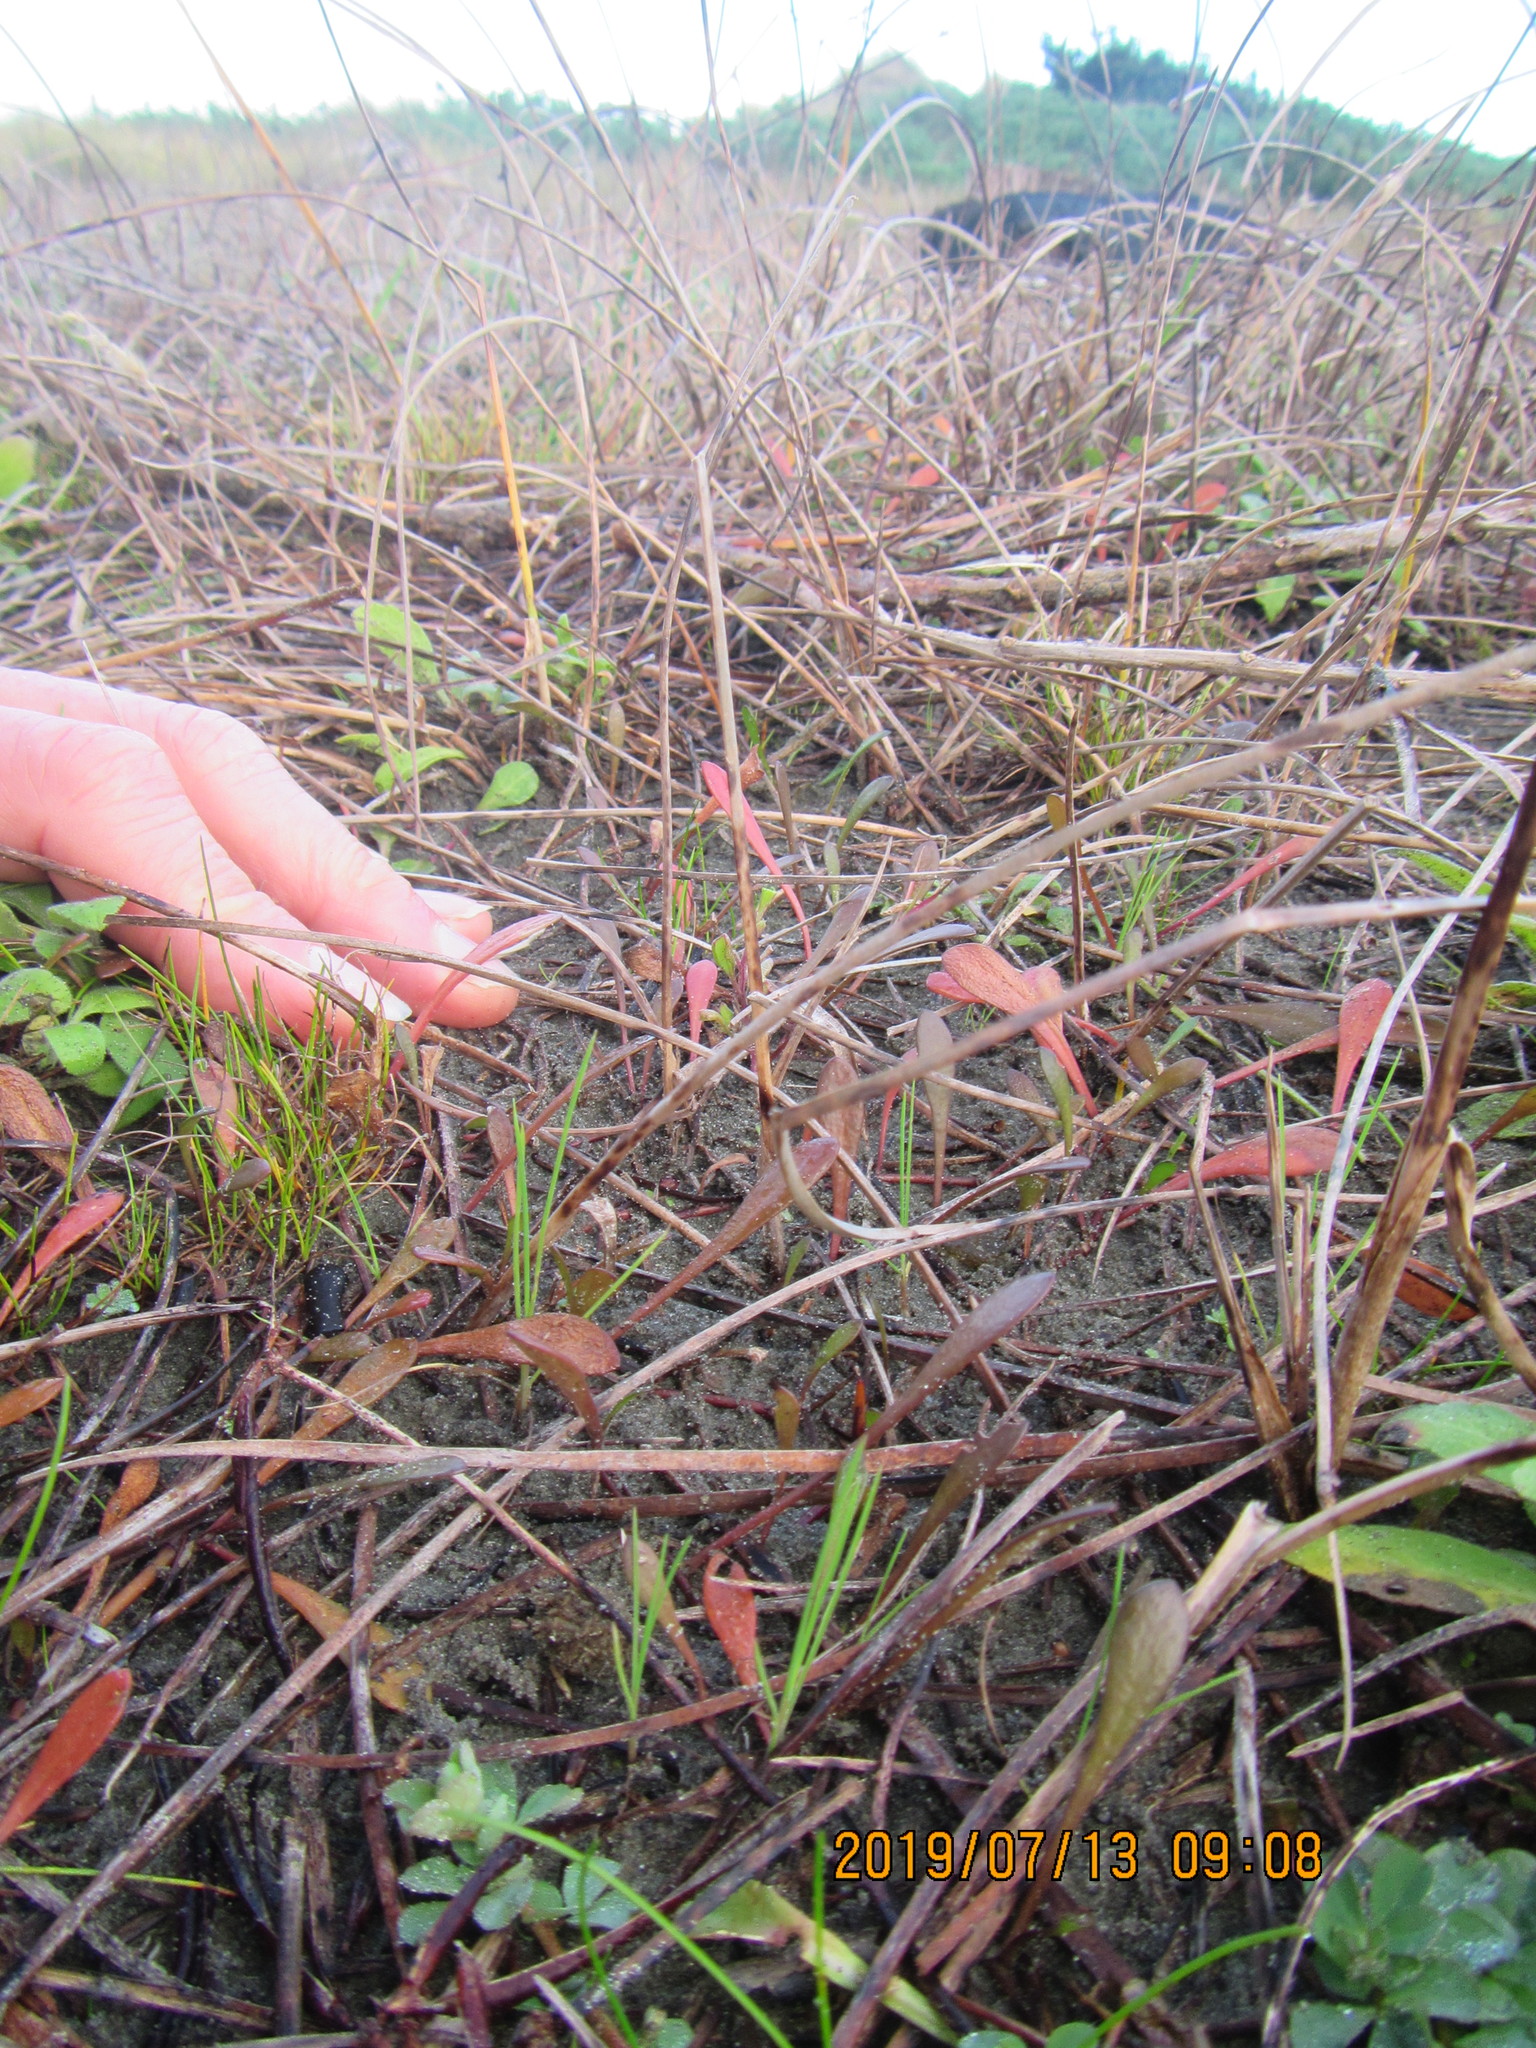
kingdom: Plantae
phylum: Tracheophyta
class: Magnoliopsida
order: Asterales
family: Goodeniaceae
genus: Goodenia
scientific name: Goodenia radicans
